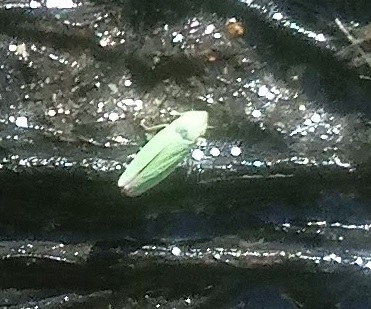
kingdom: Animalia
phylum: Arthropoda
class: Insecta
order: Hemiptera
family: Cicadellidae
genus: Helochara
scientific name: Helochara communis
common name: Bog leafhopper
